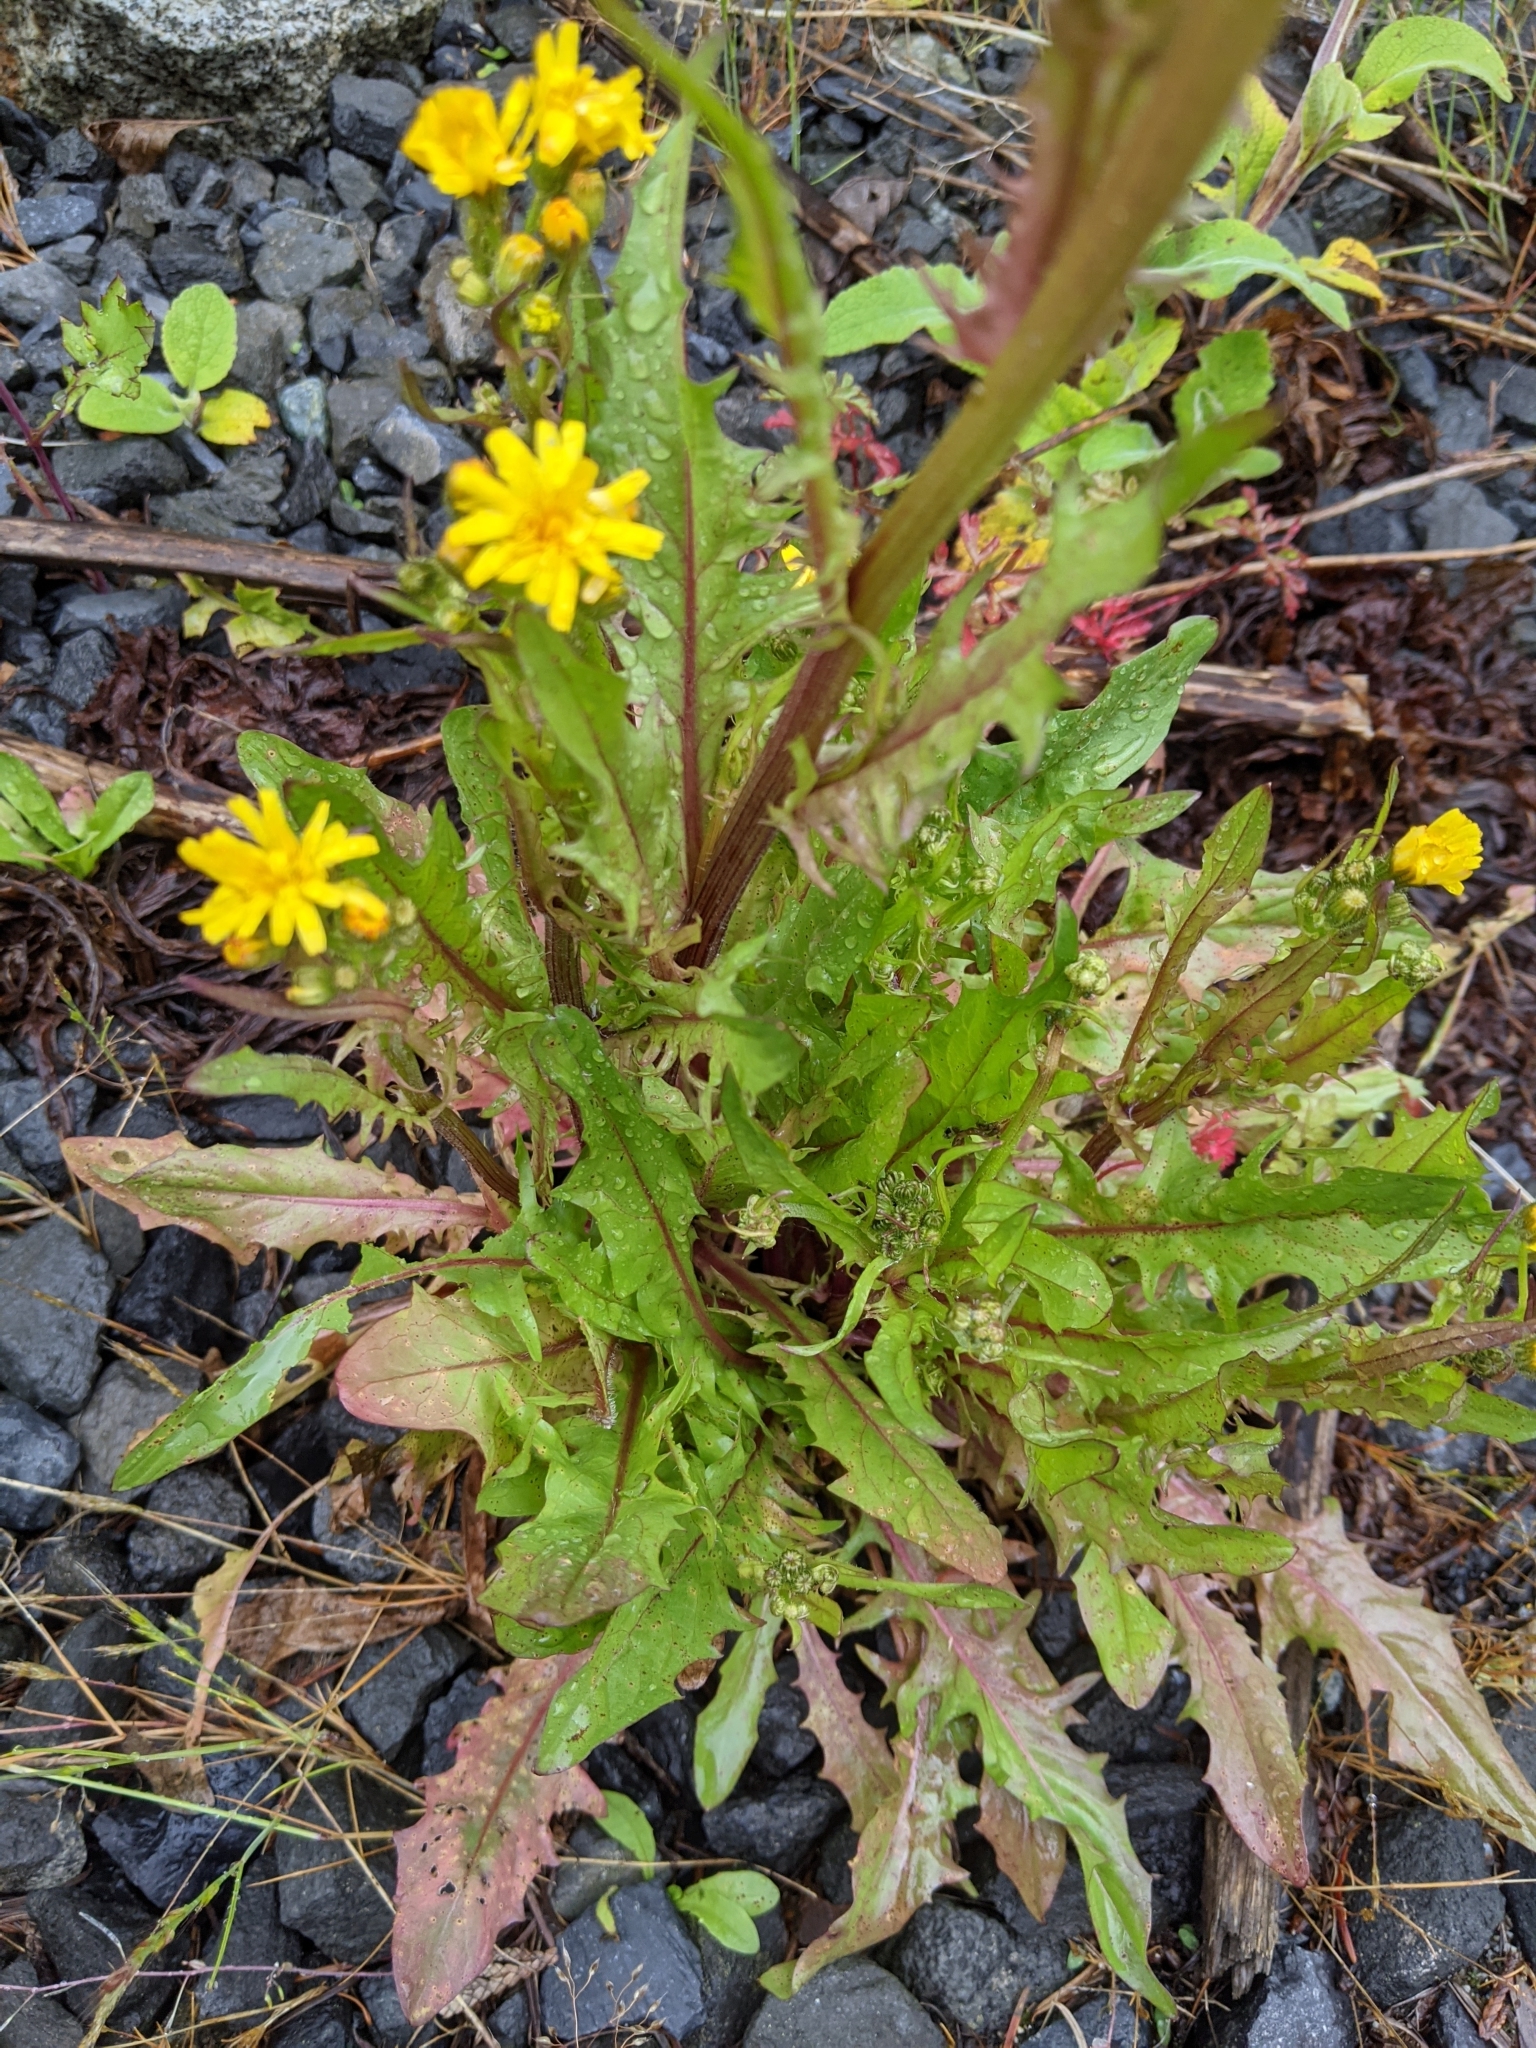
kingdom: Plantae
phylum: Tracheophyta
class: Magnoliopsida
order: Asterales
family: Asteraceae
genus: Crepis
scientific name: Crepis capillaris
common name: Smooth hawksbeard
